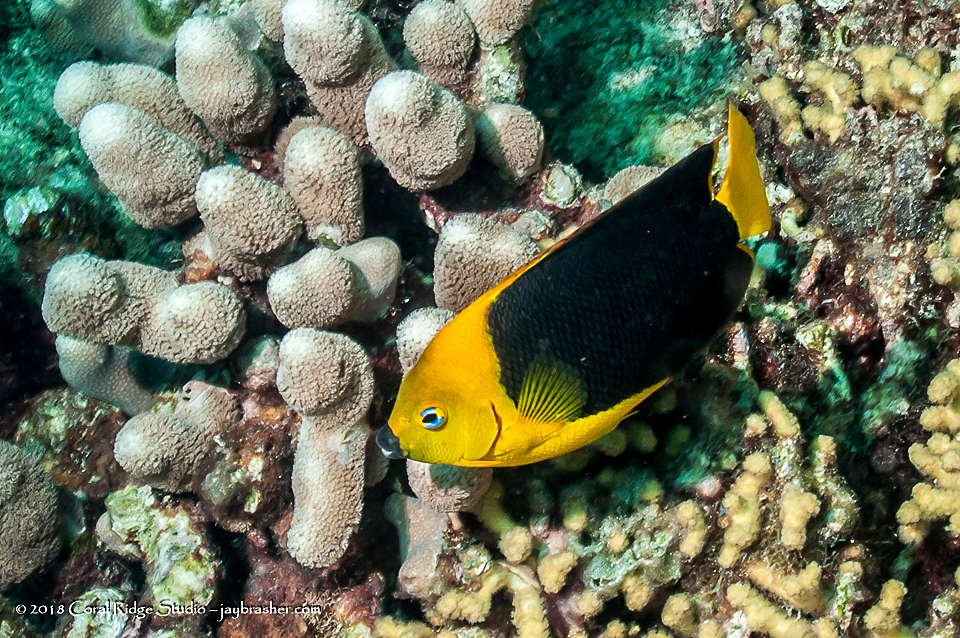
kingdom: Animalia
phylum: Chordata
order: Perciformes
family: Pomacanthidae
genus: Holacanthus
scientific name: Holacanthus tricolor
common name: Rock beauty
